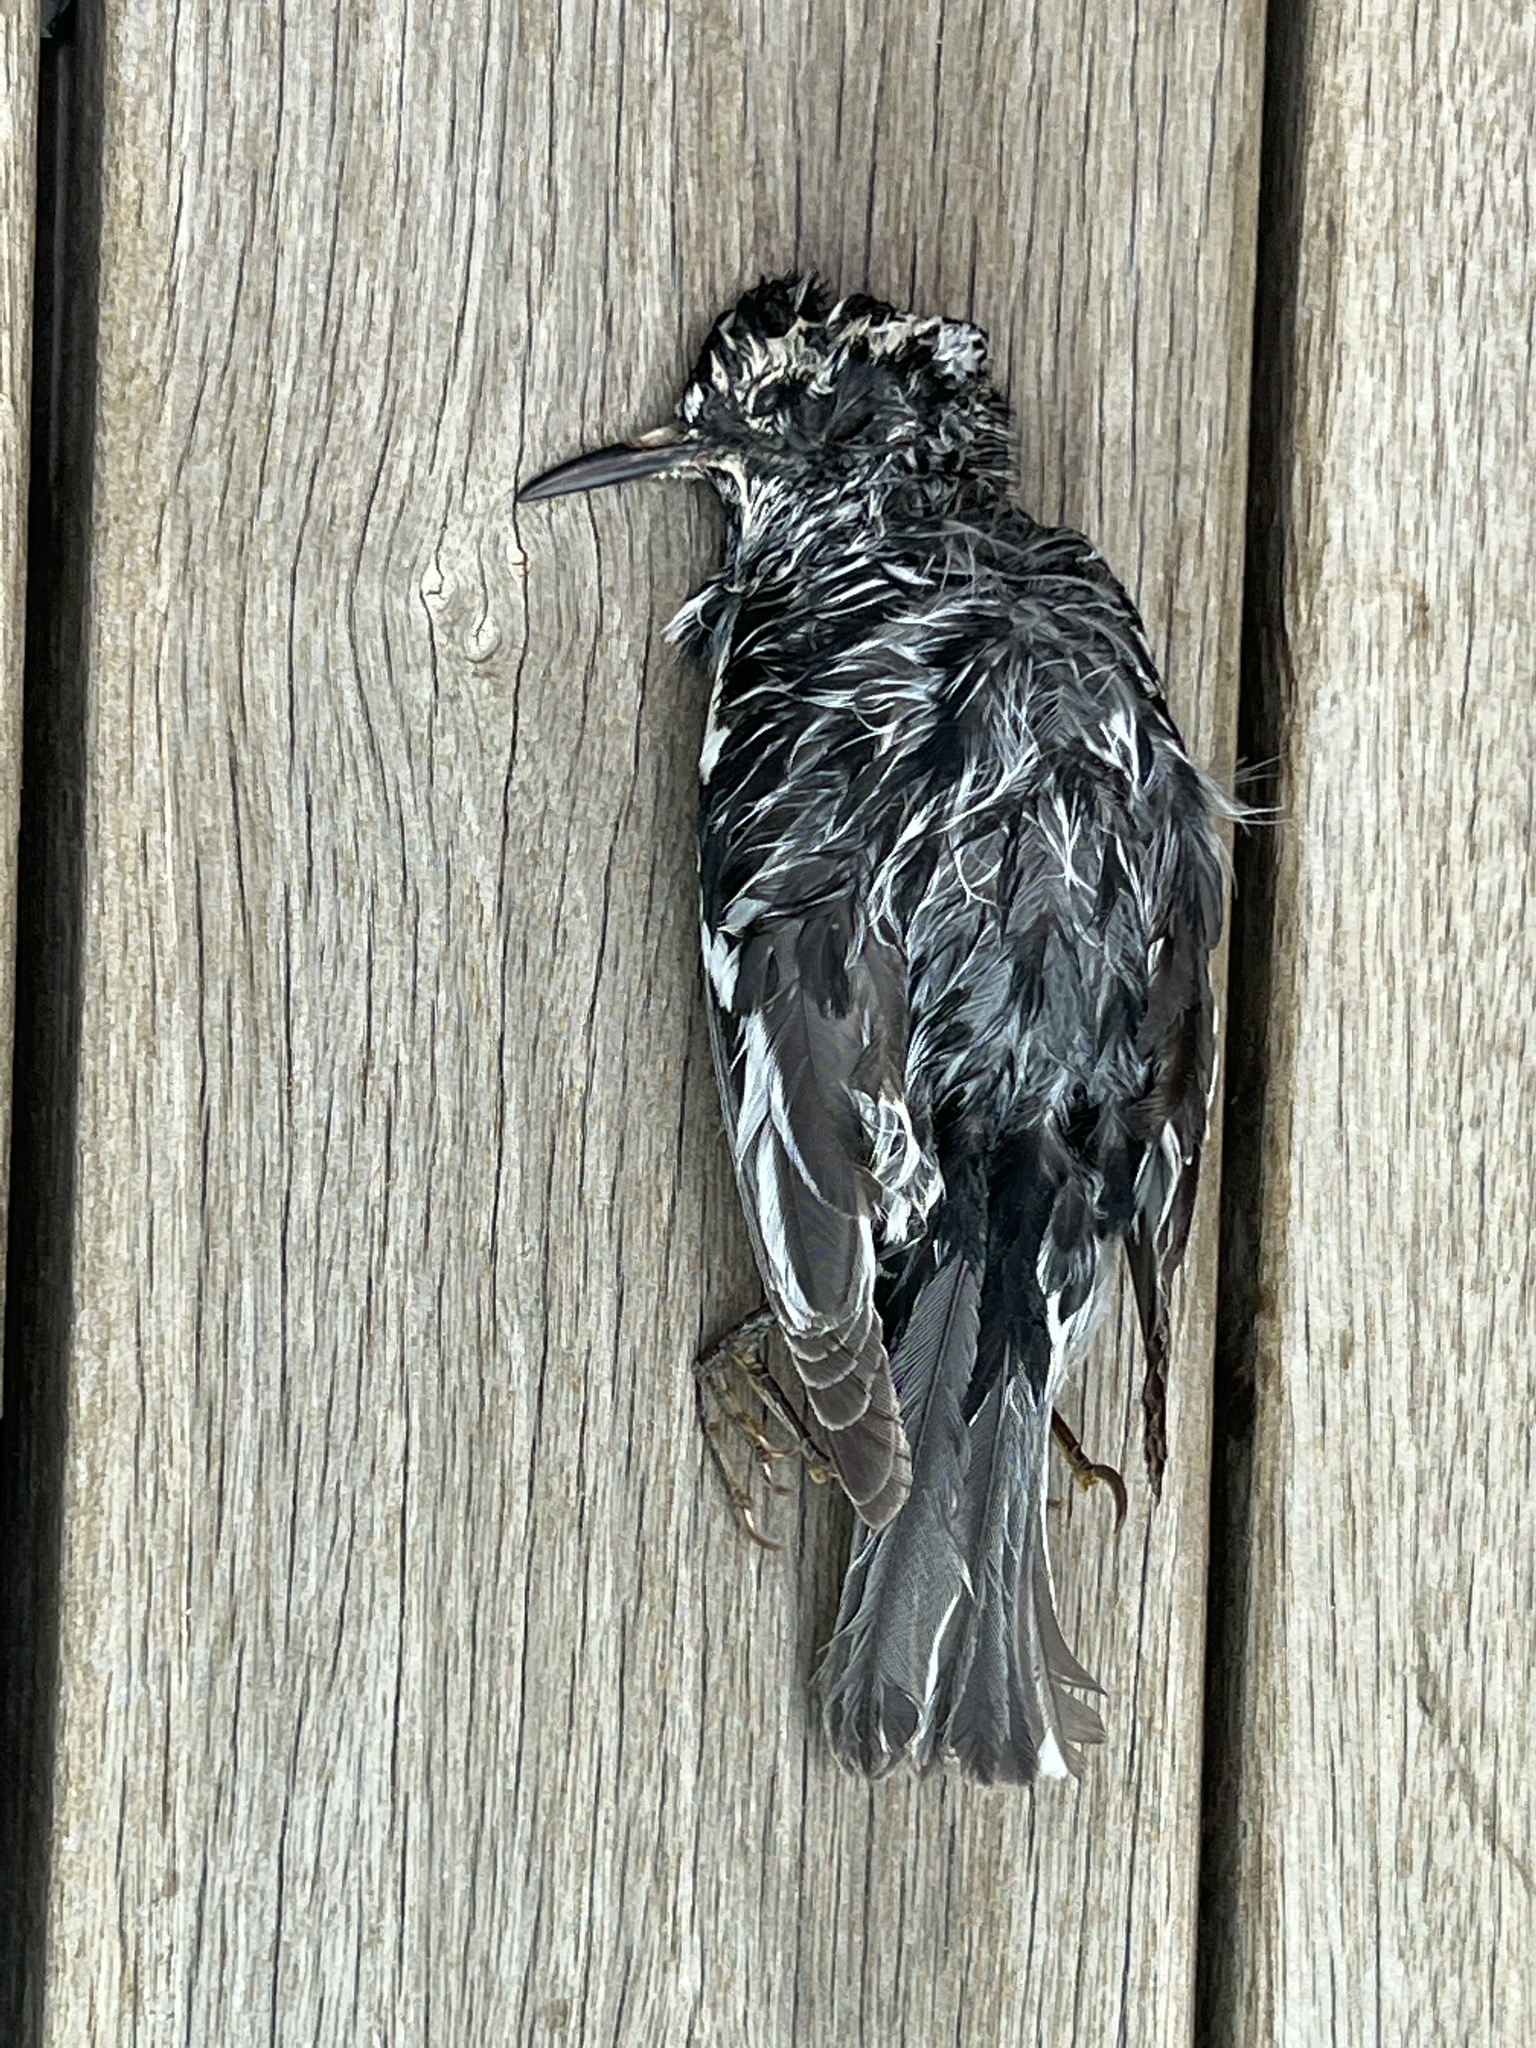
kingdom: Animalia
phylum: Chordata
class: Aves
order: Passeriformes
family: Parulidae
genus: Mniotilta
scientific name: Mniotilta varia
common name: Black-and-white warbler
